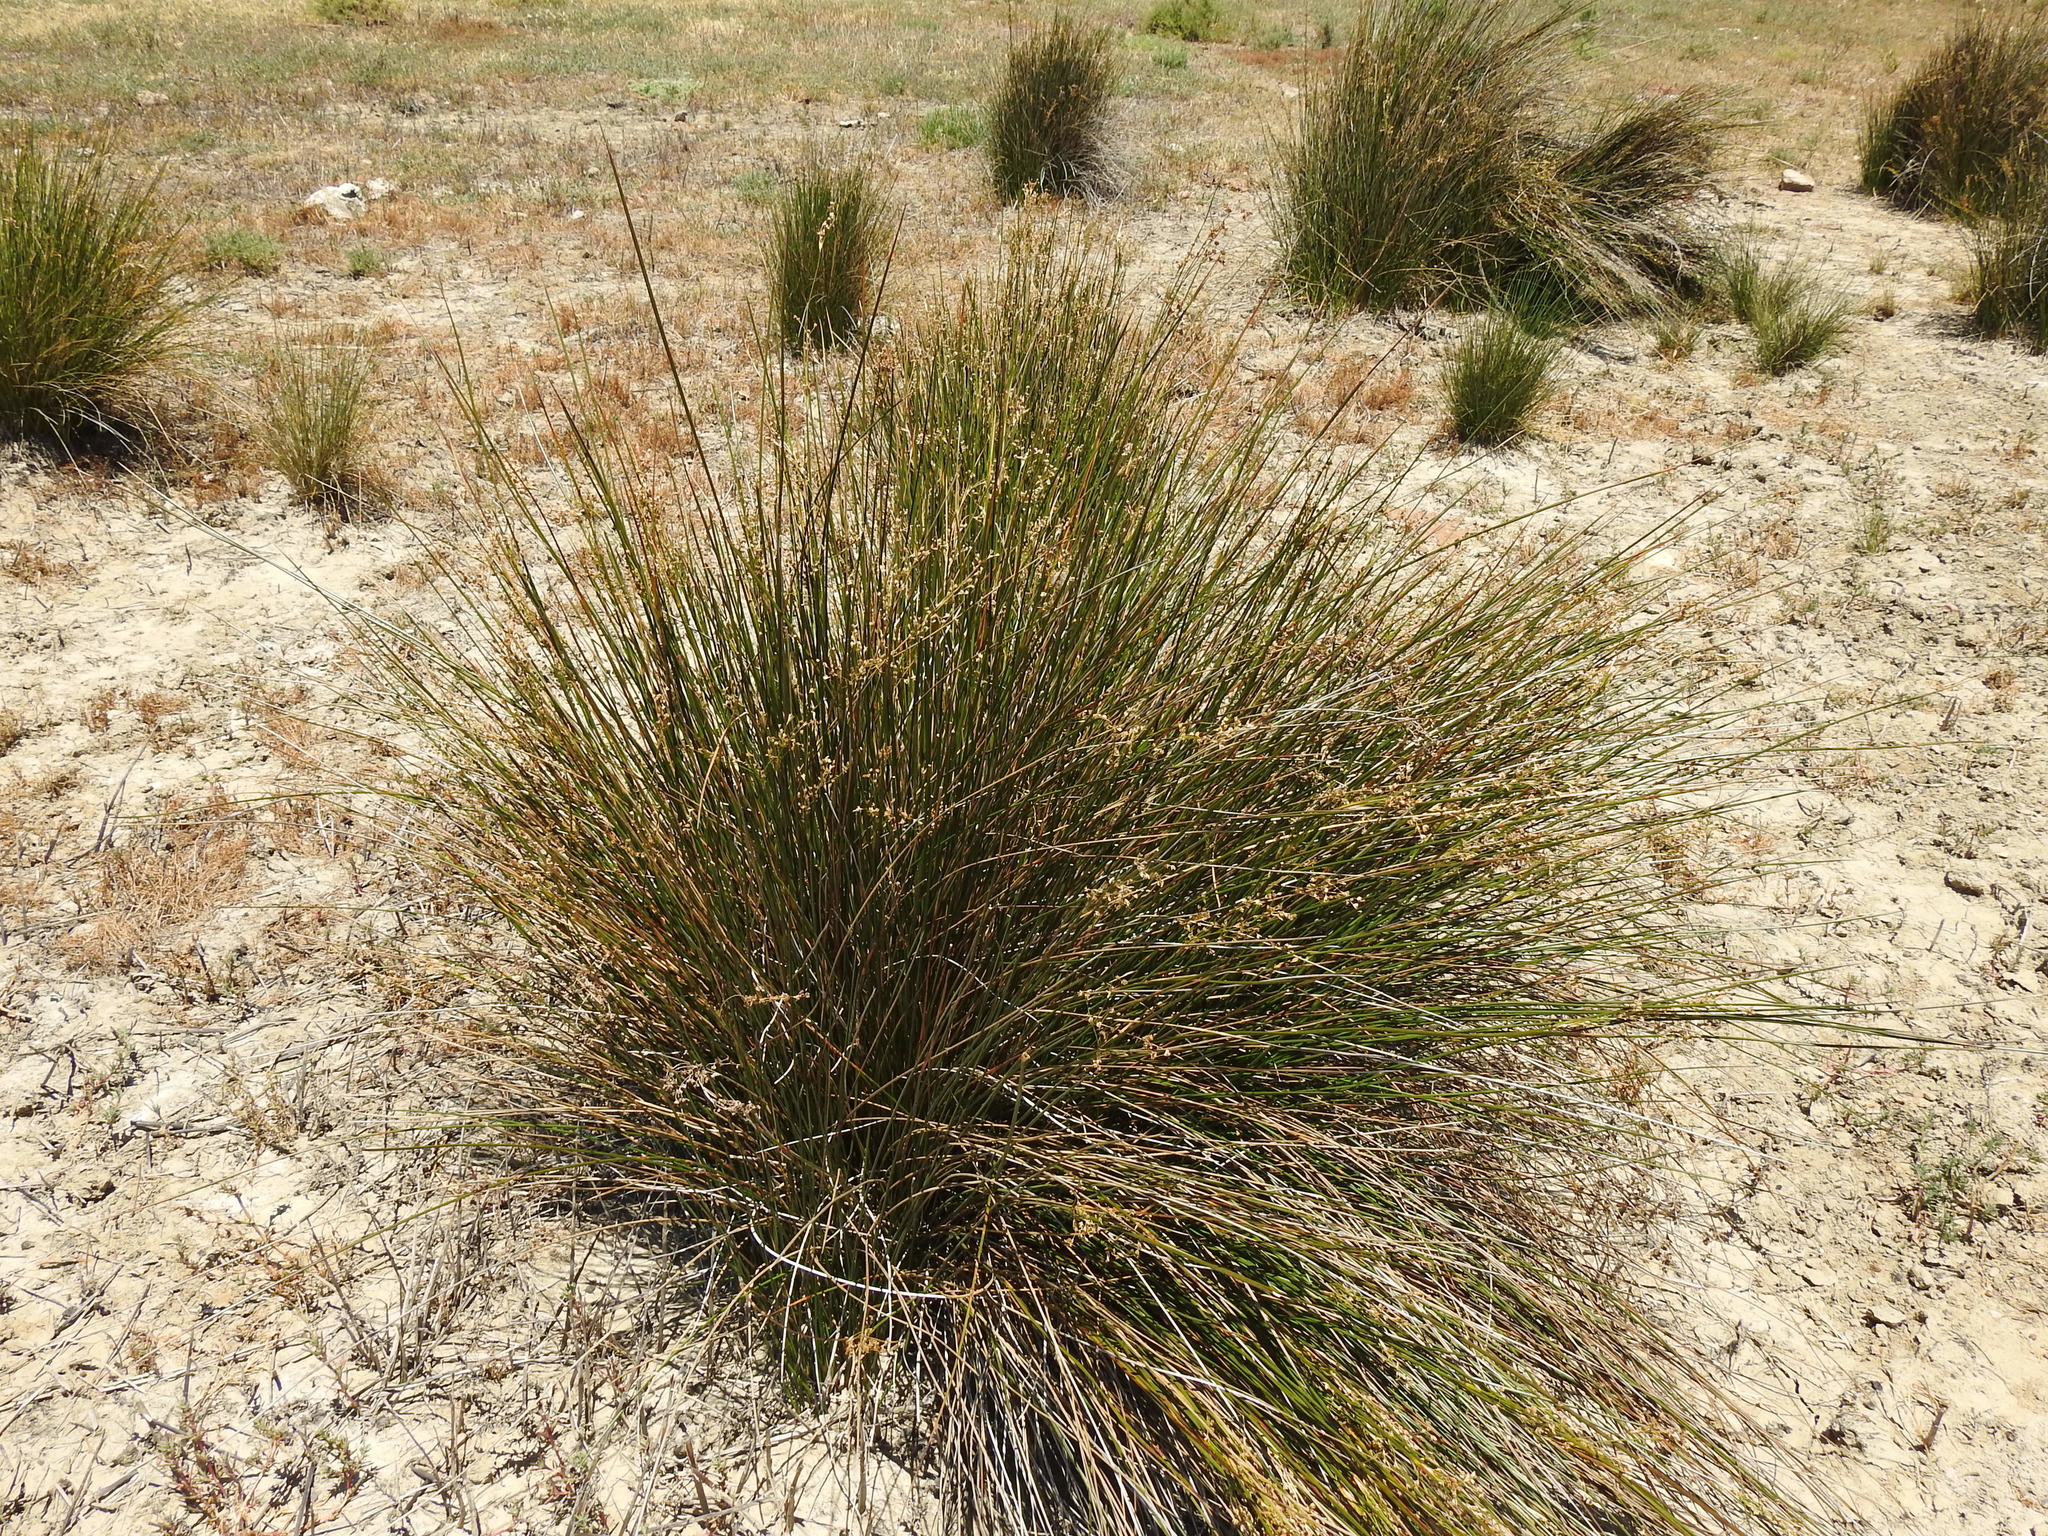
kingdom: Plantae
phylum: Tracheophyta
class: Liliopsida
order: Poales
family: Juncaceae
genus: Juncus
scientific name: Juncus acutus
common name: Sharp rush
